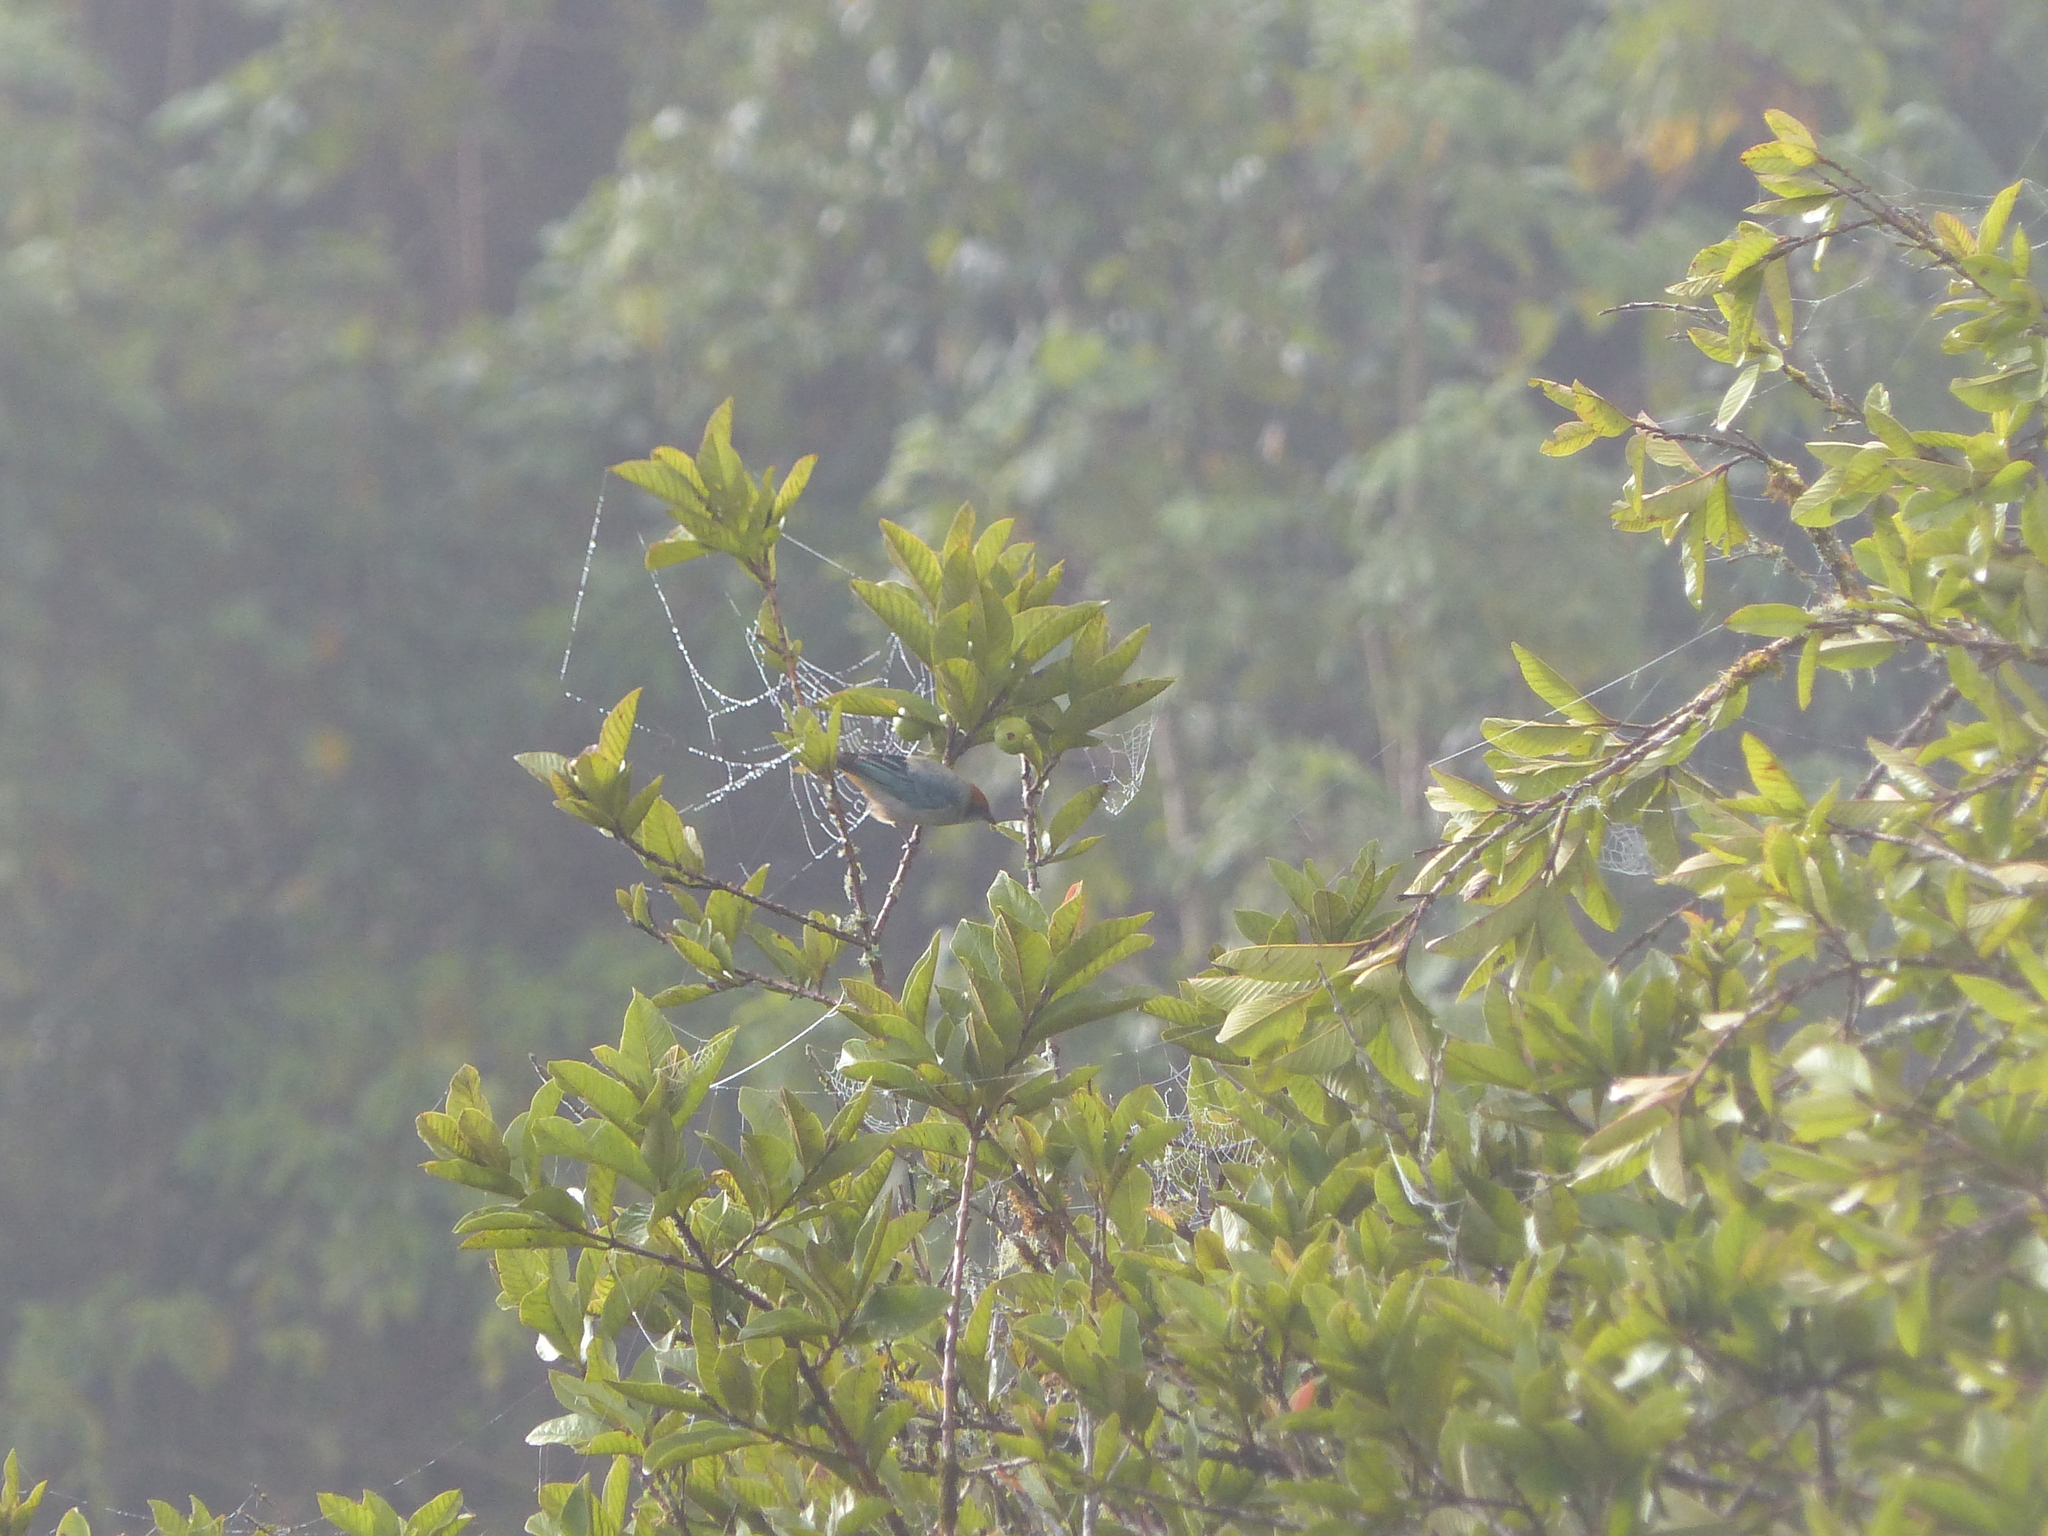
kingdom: Animalia
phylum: Chordata
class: Aves
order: Passeriformes
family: Thraupidae
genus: Stilpnia
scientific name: Stilpnia vitriolina
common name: Scrub tanager
